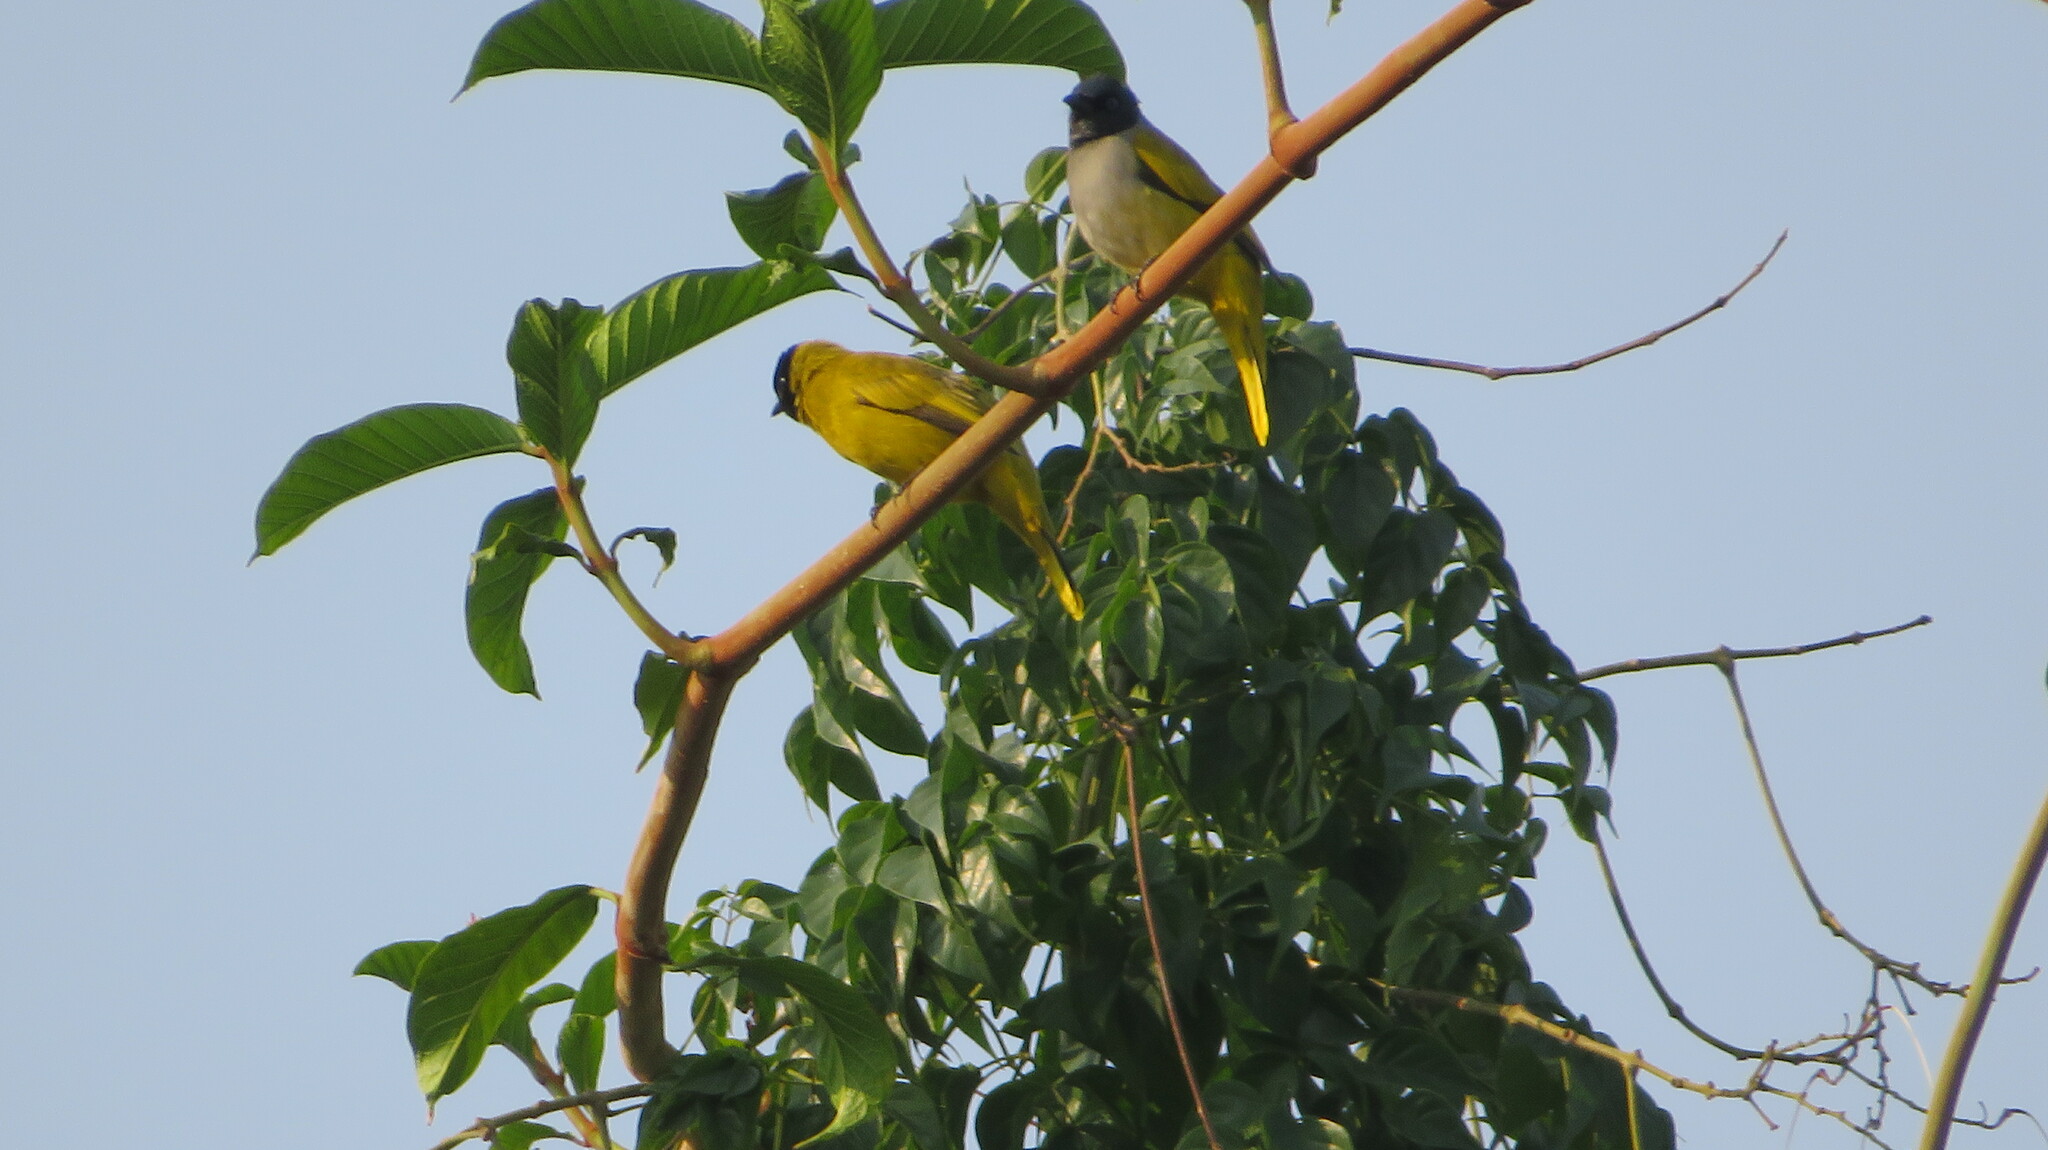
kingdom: Animalia
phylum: Chordata
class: Aves
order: Passeriformes
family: Pycnonotidae
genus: Microtarsus
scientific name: Microtarsus
